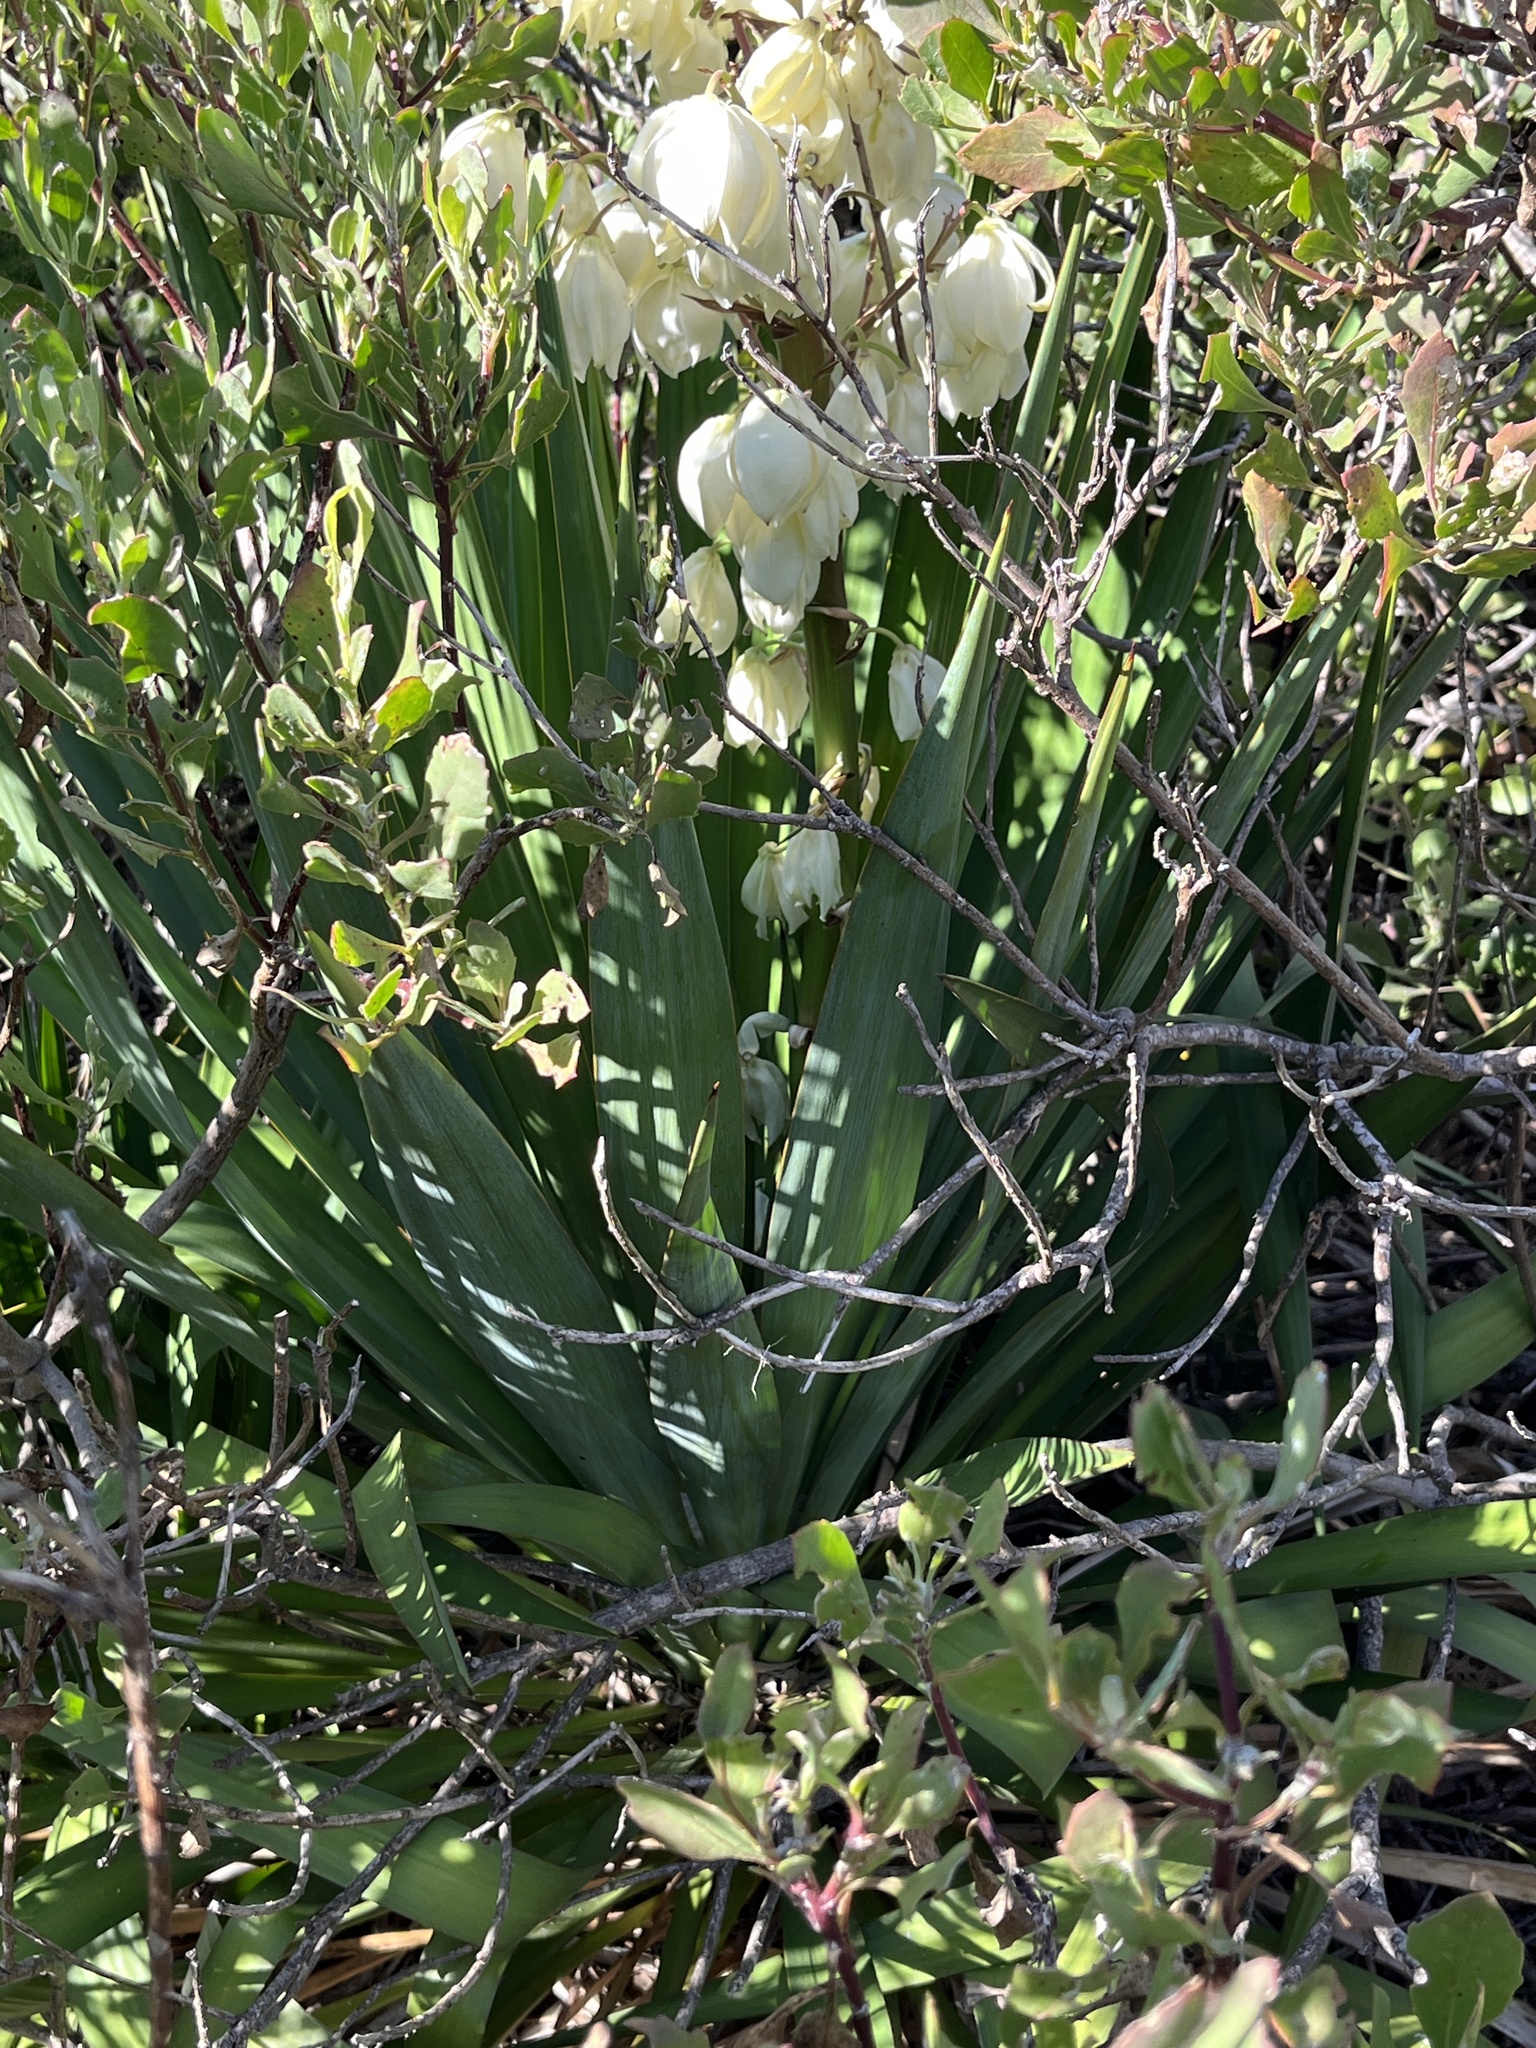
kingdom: Plantae
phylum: Tracheophyta
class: Liliopsida
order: Asparagales
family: Asparagaceae
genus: Yucca
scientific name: Yucca gloriosa
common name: Spanish-dagger
